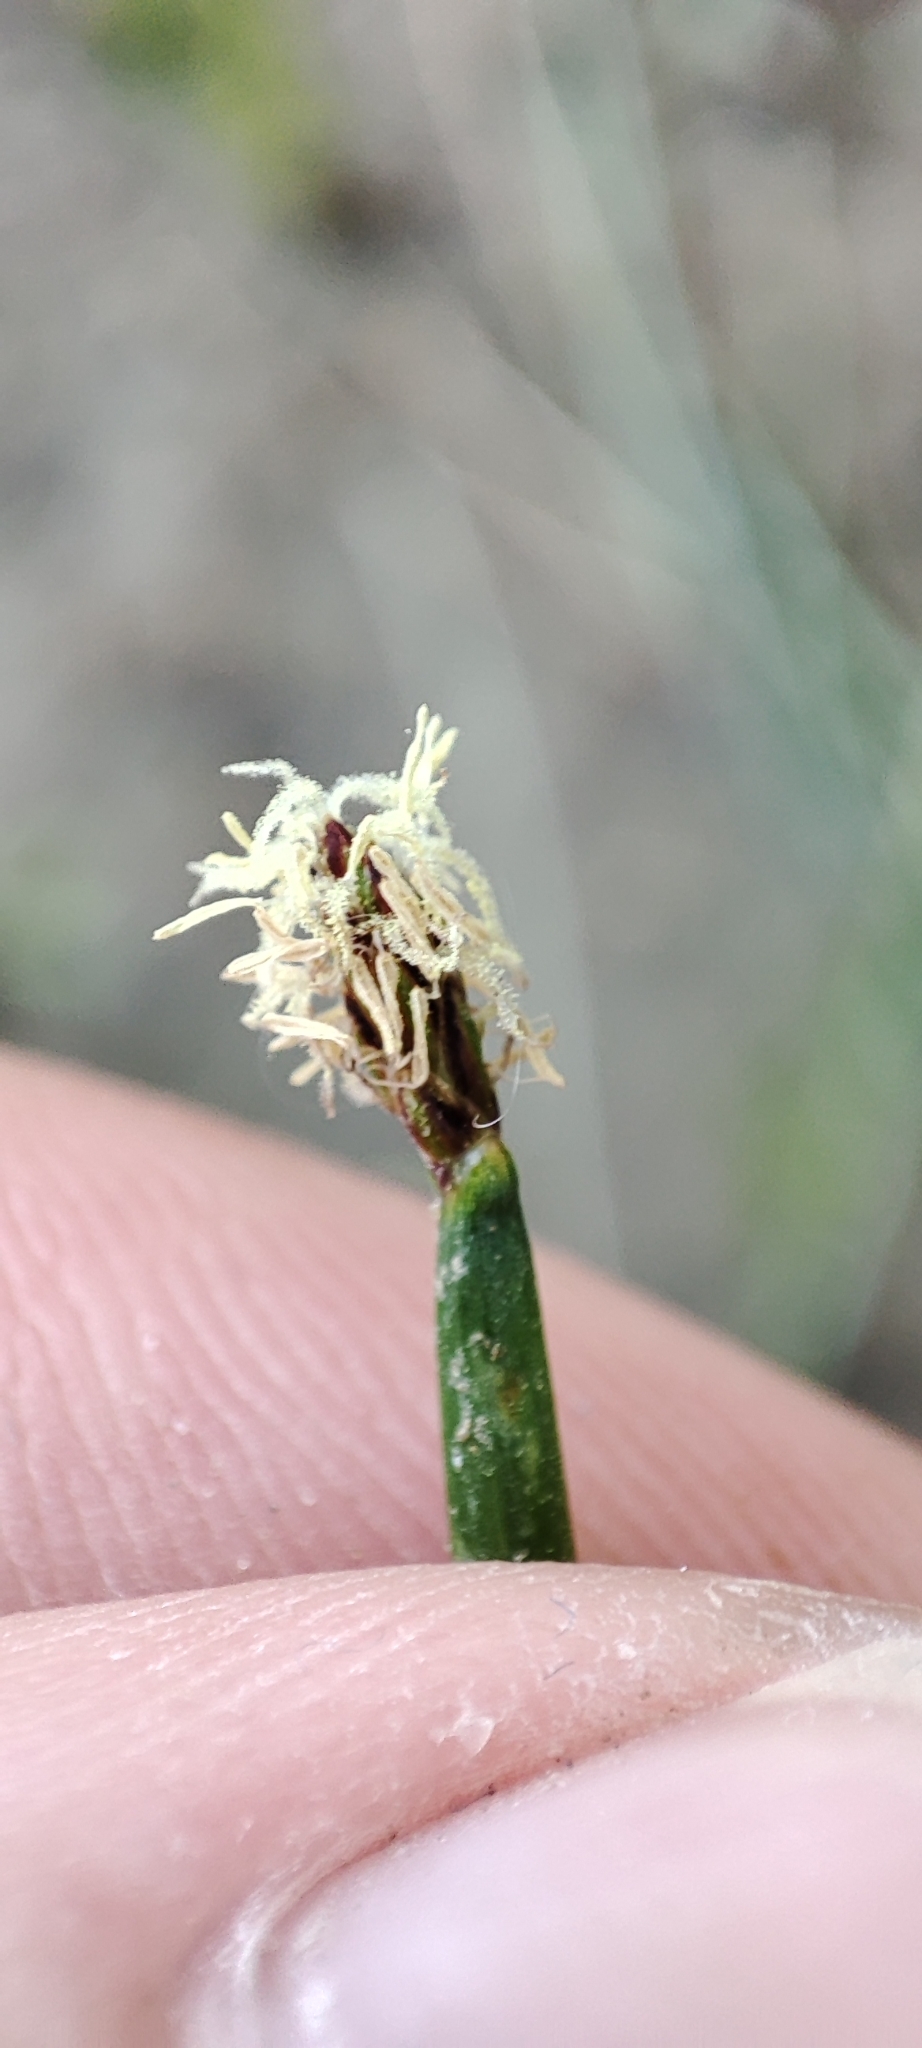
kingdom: Plantae
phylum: Tracheophyta
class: Liliopsida
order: Poales
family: Cyperaceae
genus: Eleocharis
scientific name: Eleocharis palustris
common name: Common spike-rush
